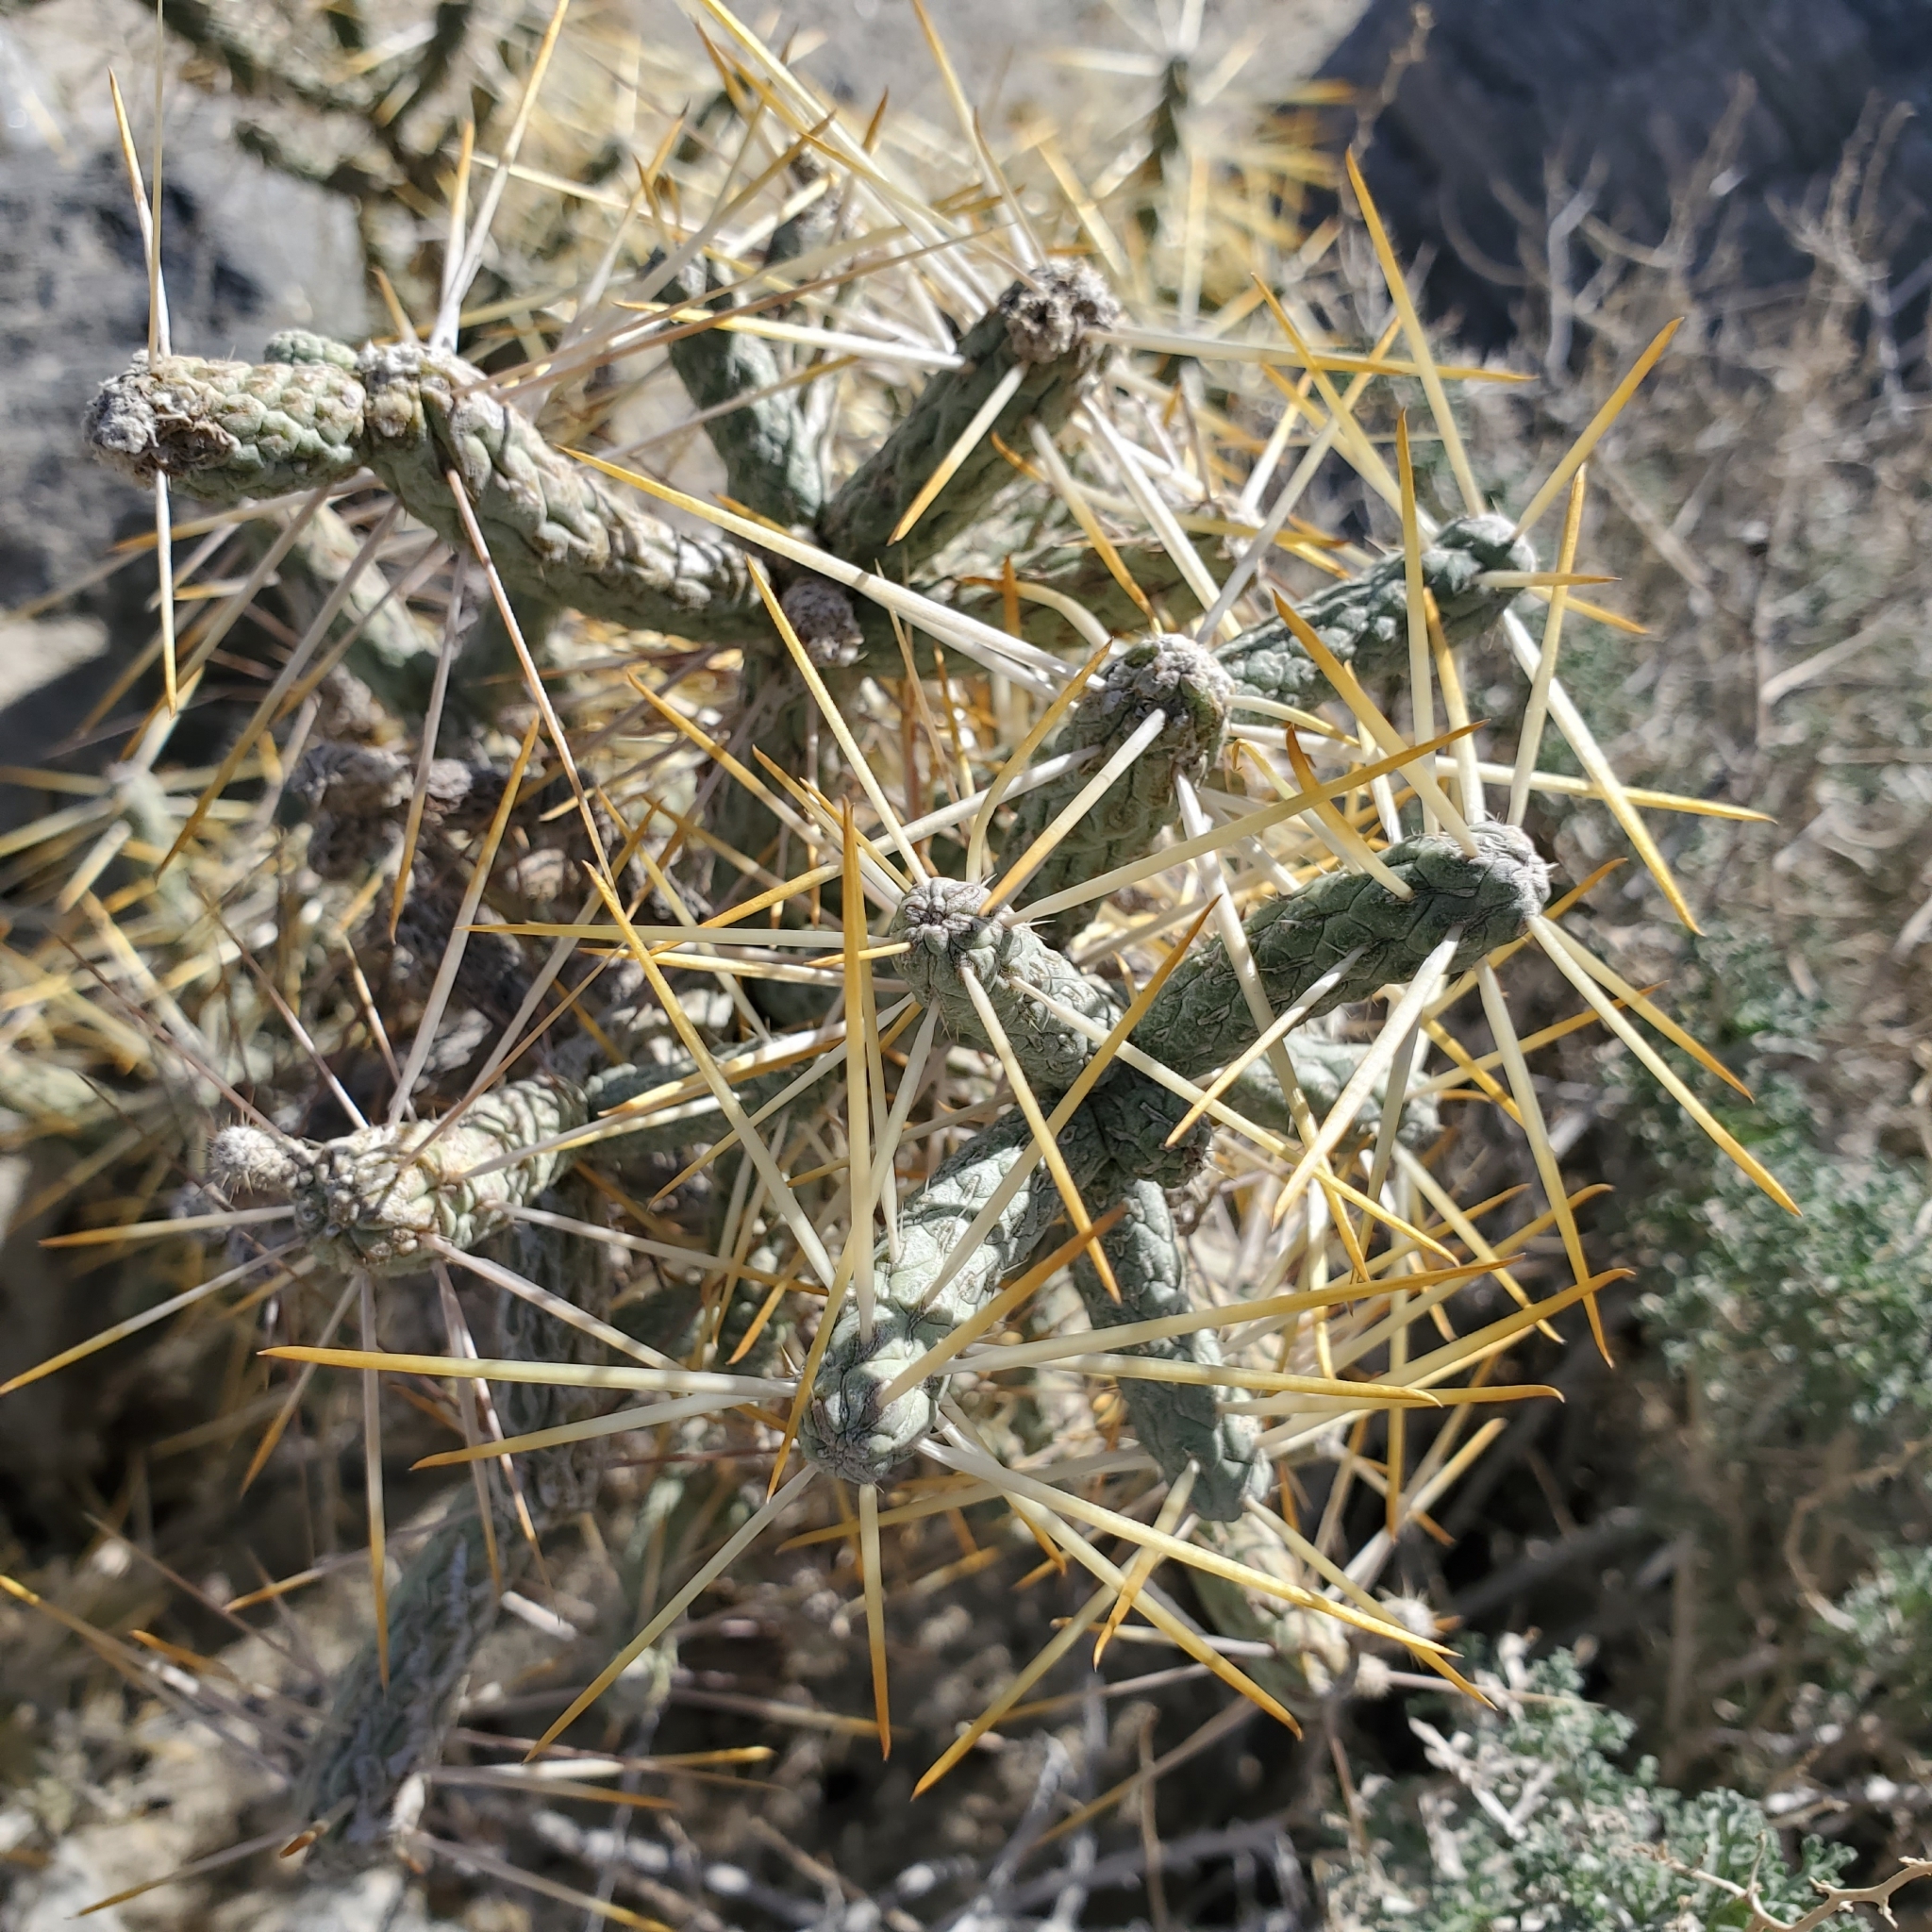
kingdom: Plantae
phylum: Tracheophyta
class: Magnoliopsida
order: Caryophyllales
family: Cactaceae
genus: Cylindropuntia
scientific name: Cylindropuntia ramosissima
